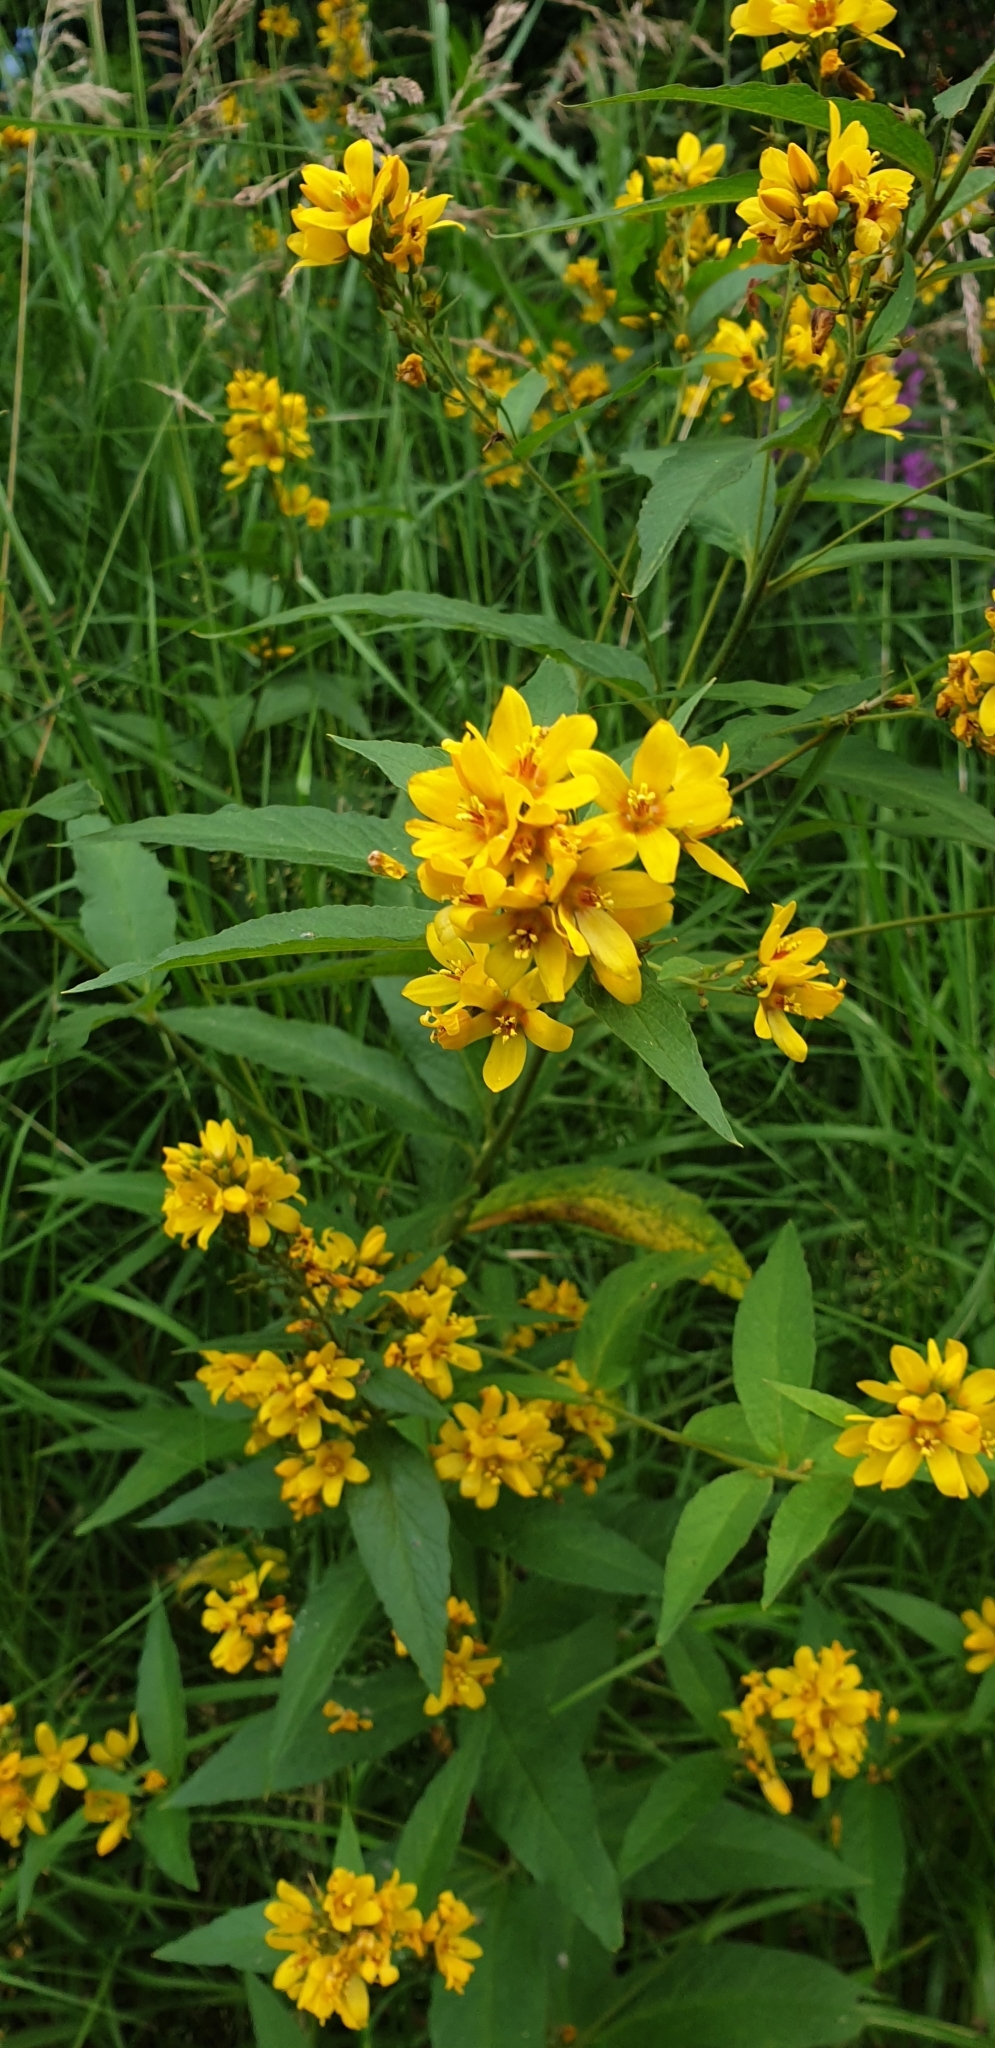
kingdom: Plantae
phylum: Tracheophyta
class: Magnoliopsida
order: Ericales
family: Primulaceae
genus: Lysimachia
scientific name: Lysimachia vulgaris
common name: Yellow loosestrife
